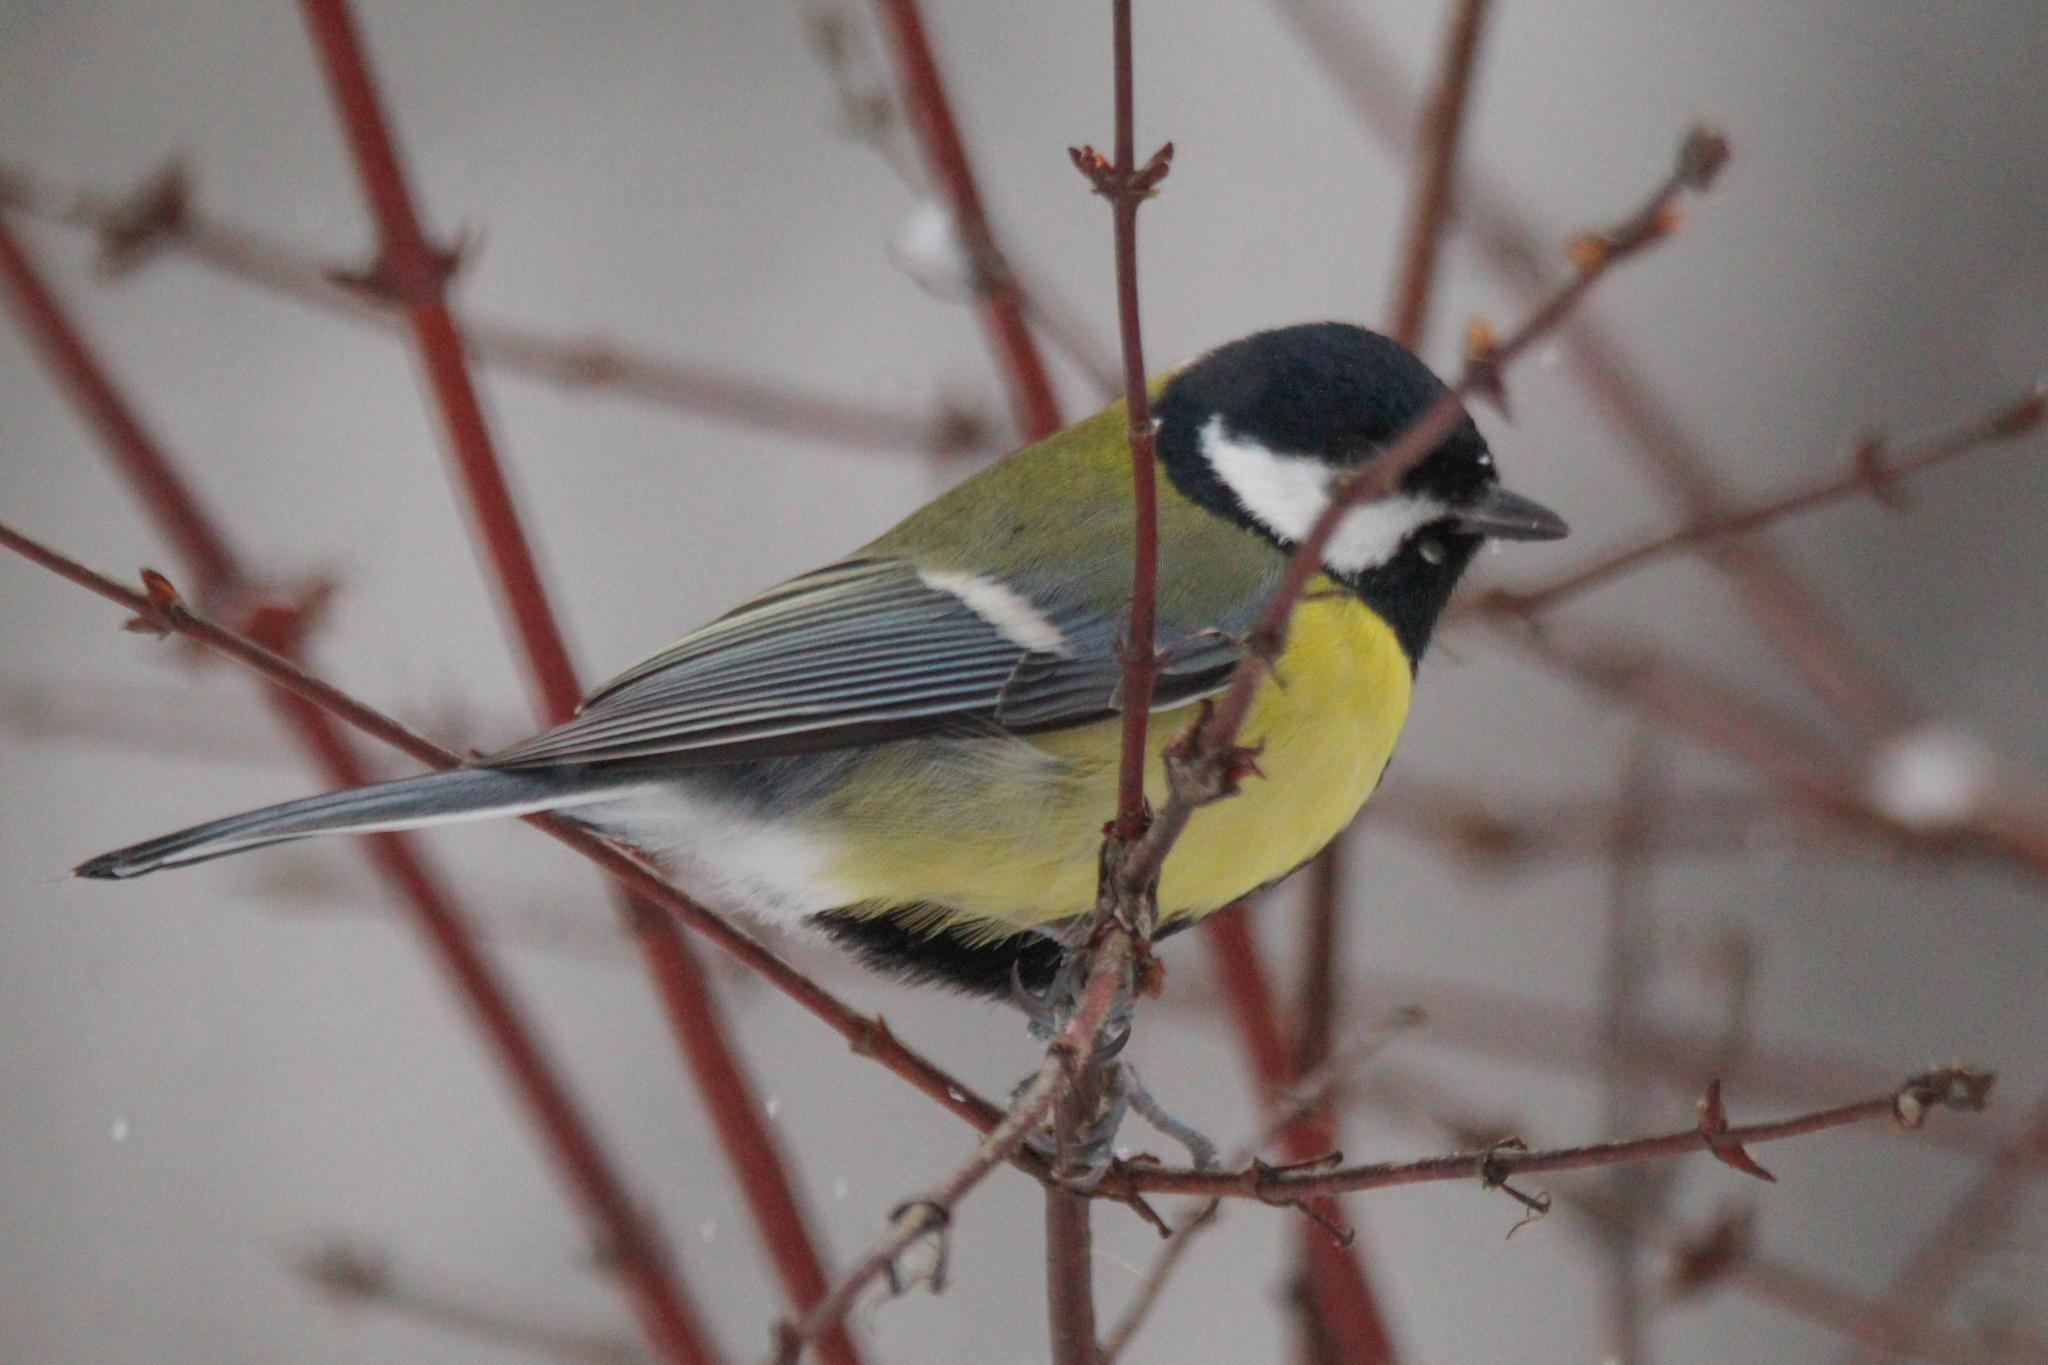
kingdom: Animalia
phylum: Chordata
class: Aves
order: Passeriformes
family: Paridae
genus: Parus
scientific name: Parus major
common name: Great tit
